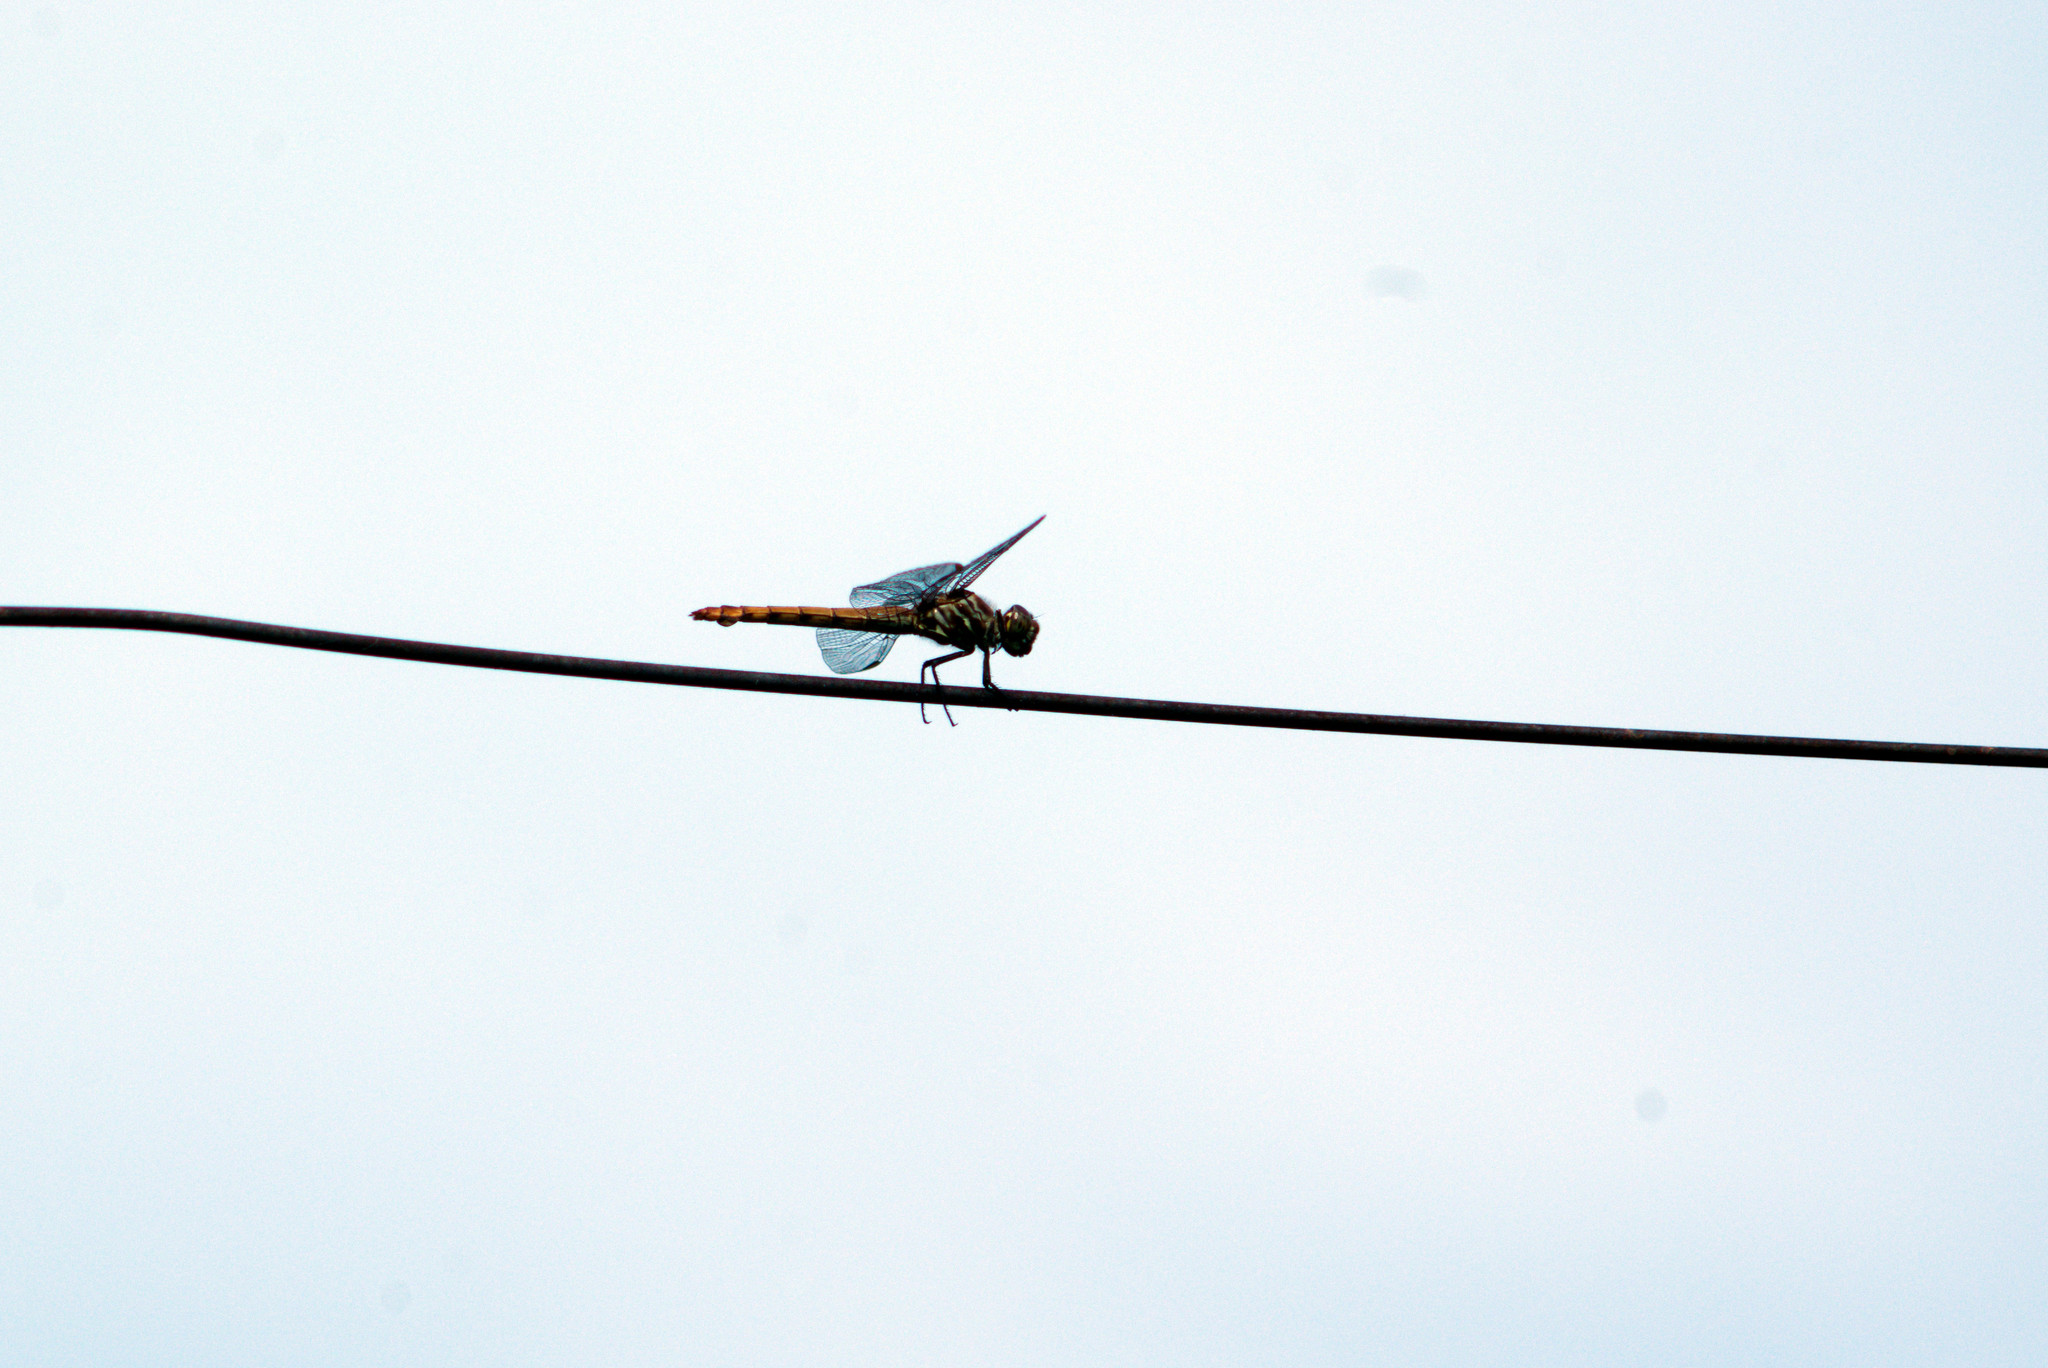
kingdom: Animalia
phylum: Arthropoda
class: Insecta
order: Odonata
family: Libellulidae
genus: Orthemis
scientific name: Orthemis ferruginea
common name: Roseate skimmer
